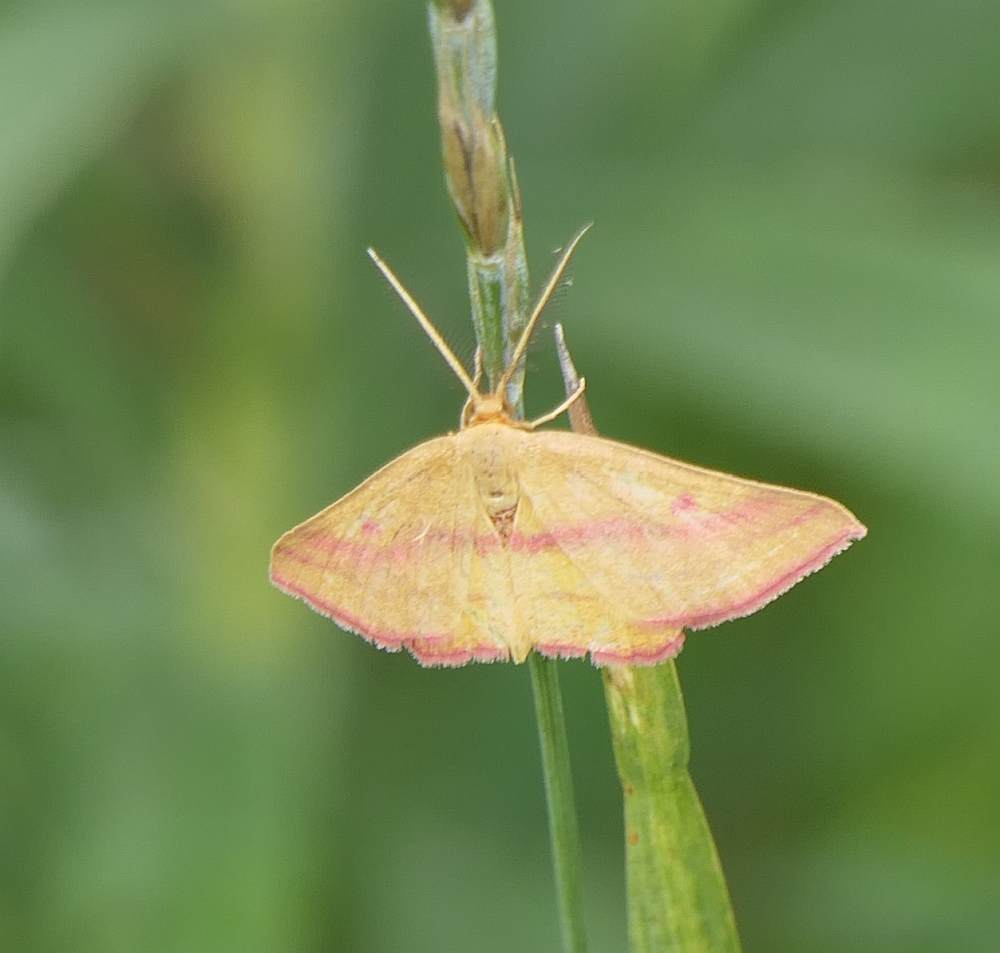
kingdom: Animalia
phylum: Arthropoda
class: Insecta
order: Lepidoptera
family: Geometridae
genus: Haematopis
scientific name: Haematopis grataria
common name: Chickweed geometer
